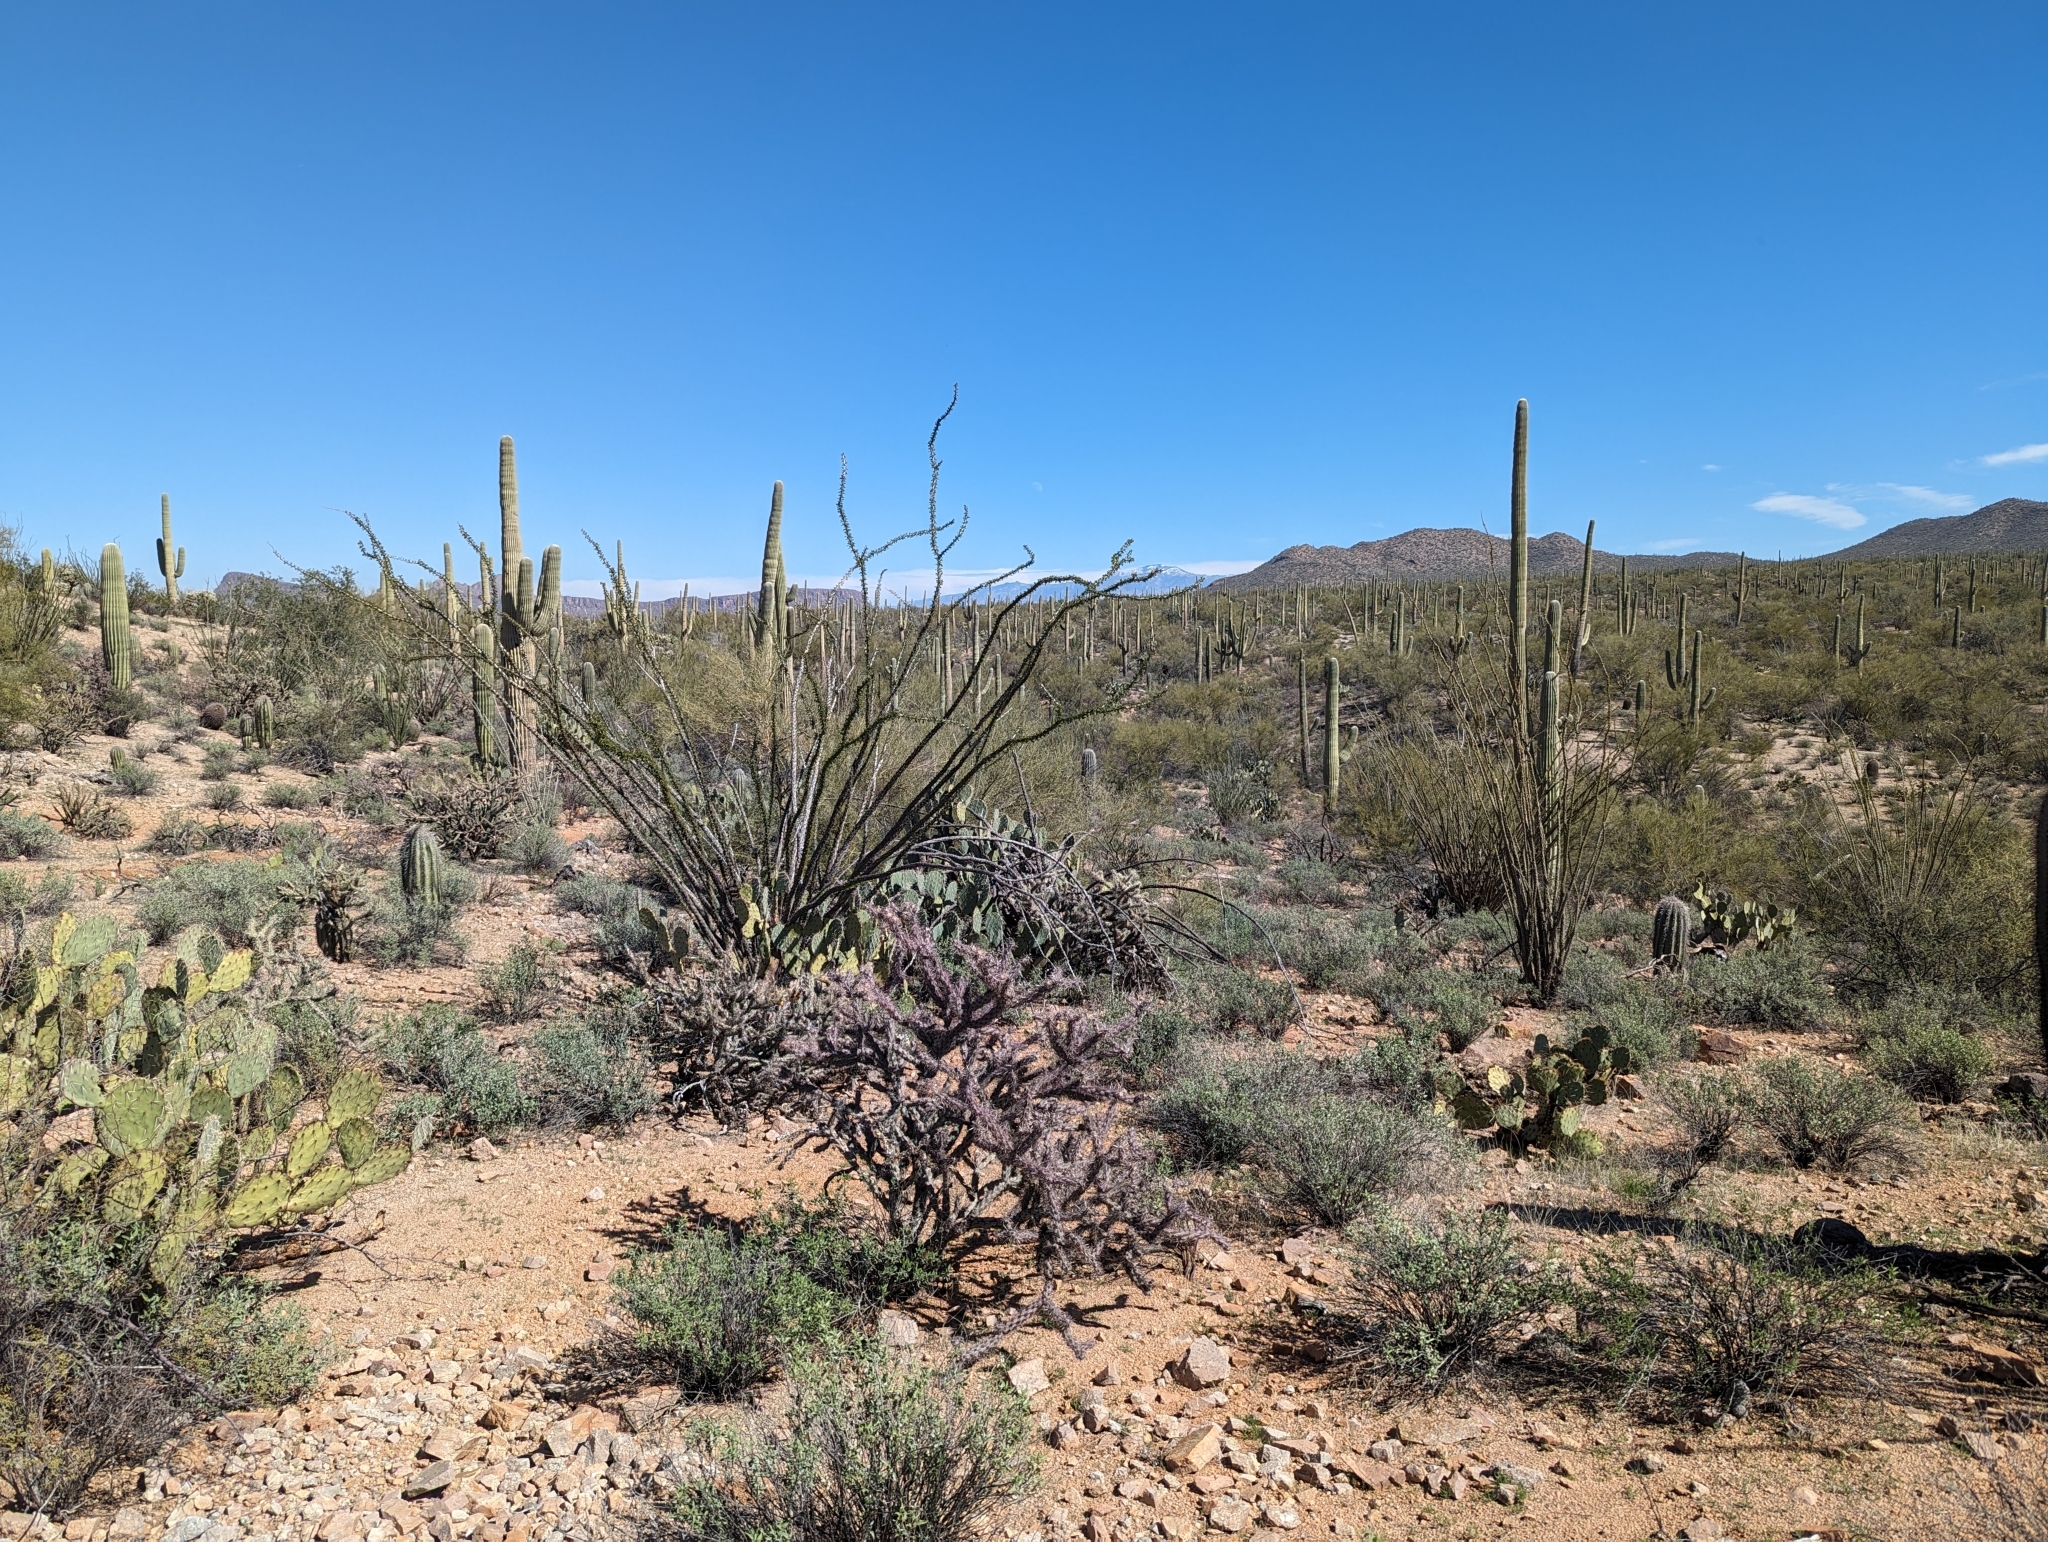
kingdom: Plantae
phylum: Tracheophyta
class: Magnoliopsida
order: Caryophyllales
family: Cactaceae
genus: Ferocactus
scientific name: Ferocactus wislizeni
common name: Candy barrel cactus
